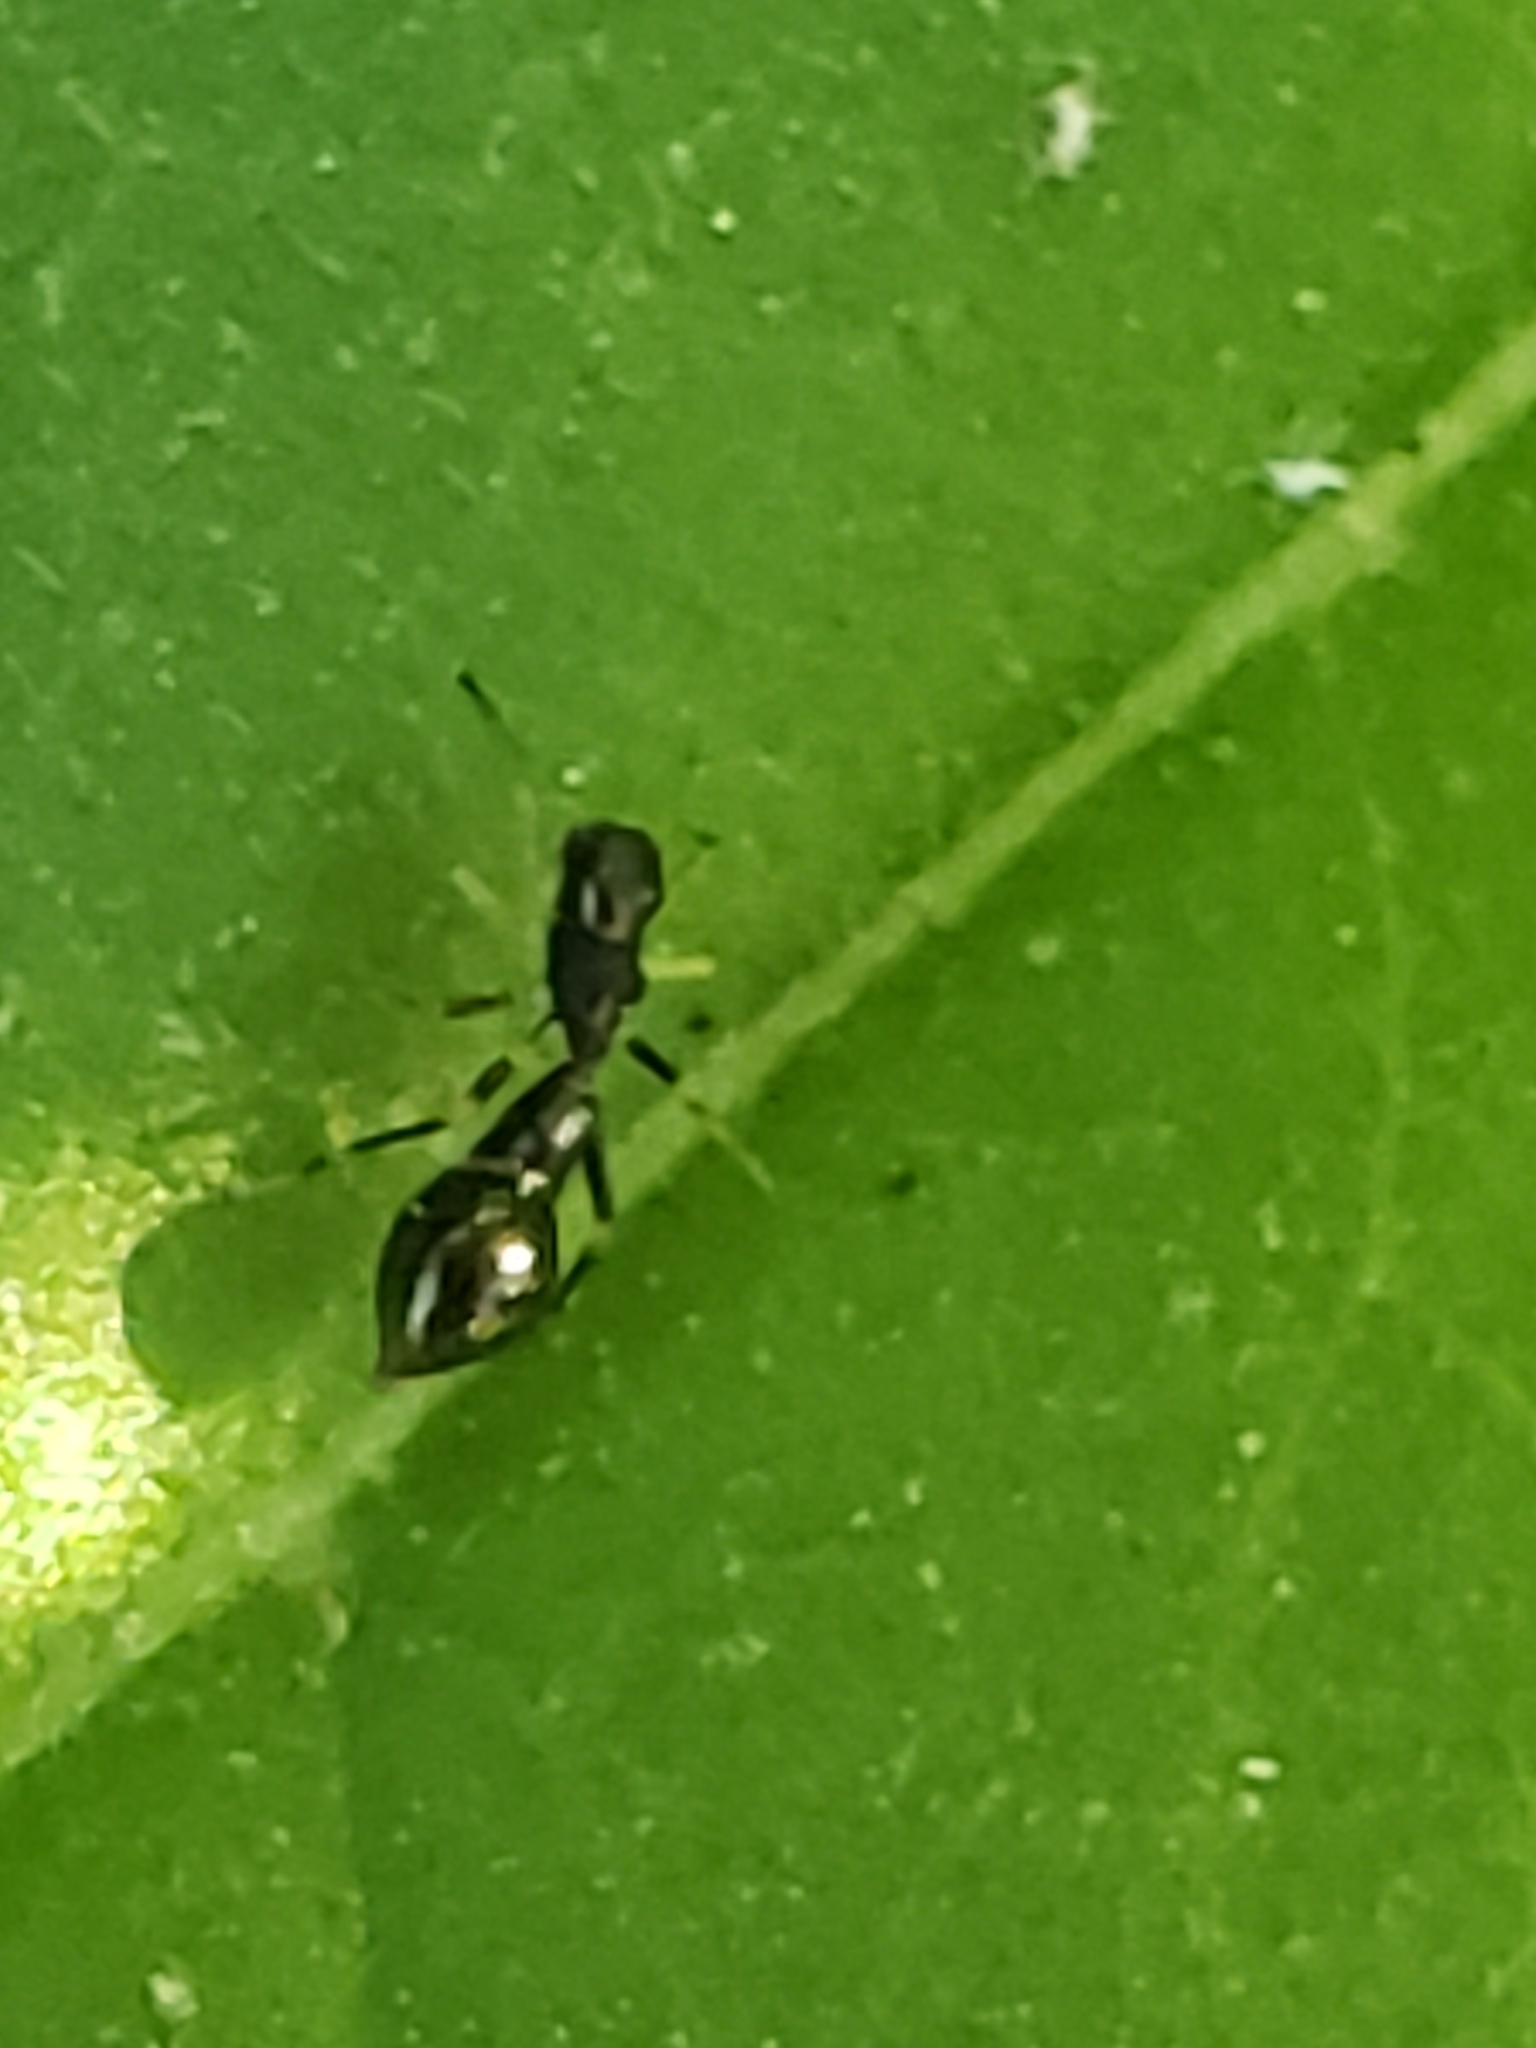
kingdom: Animalia
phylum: Arthropoda
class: Arachnida
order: Araneae
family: Salticidae
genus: Synemosyna
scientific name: Synemosyna formica
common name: Slender ant-mimic jumping spider
